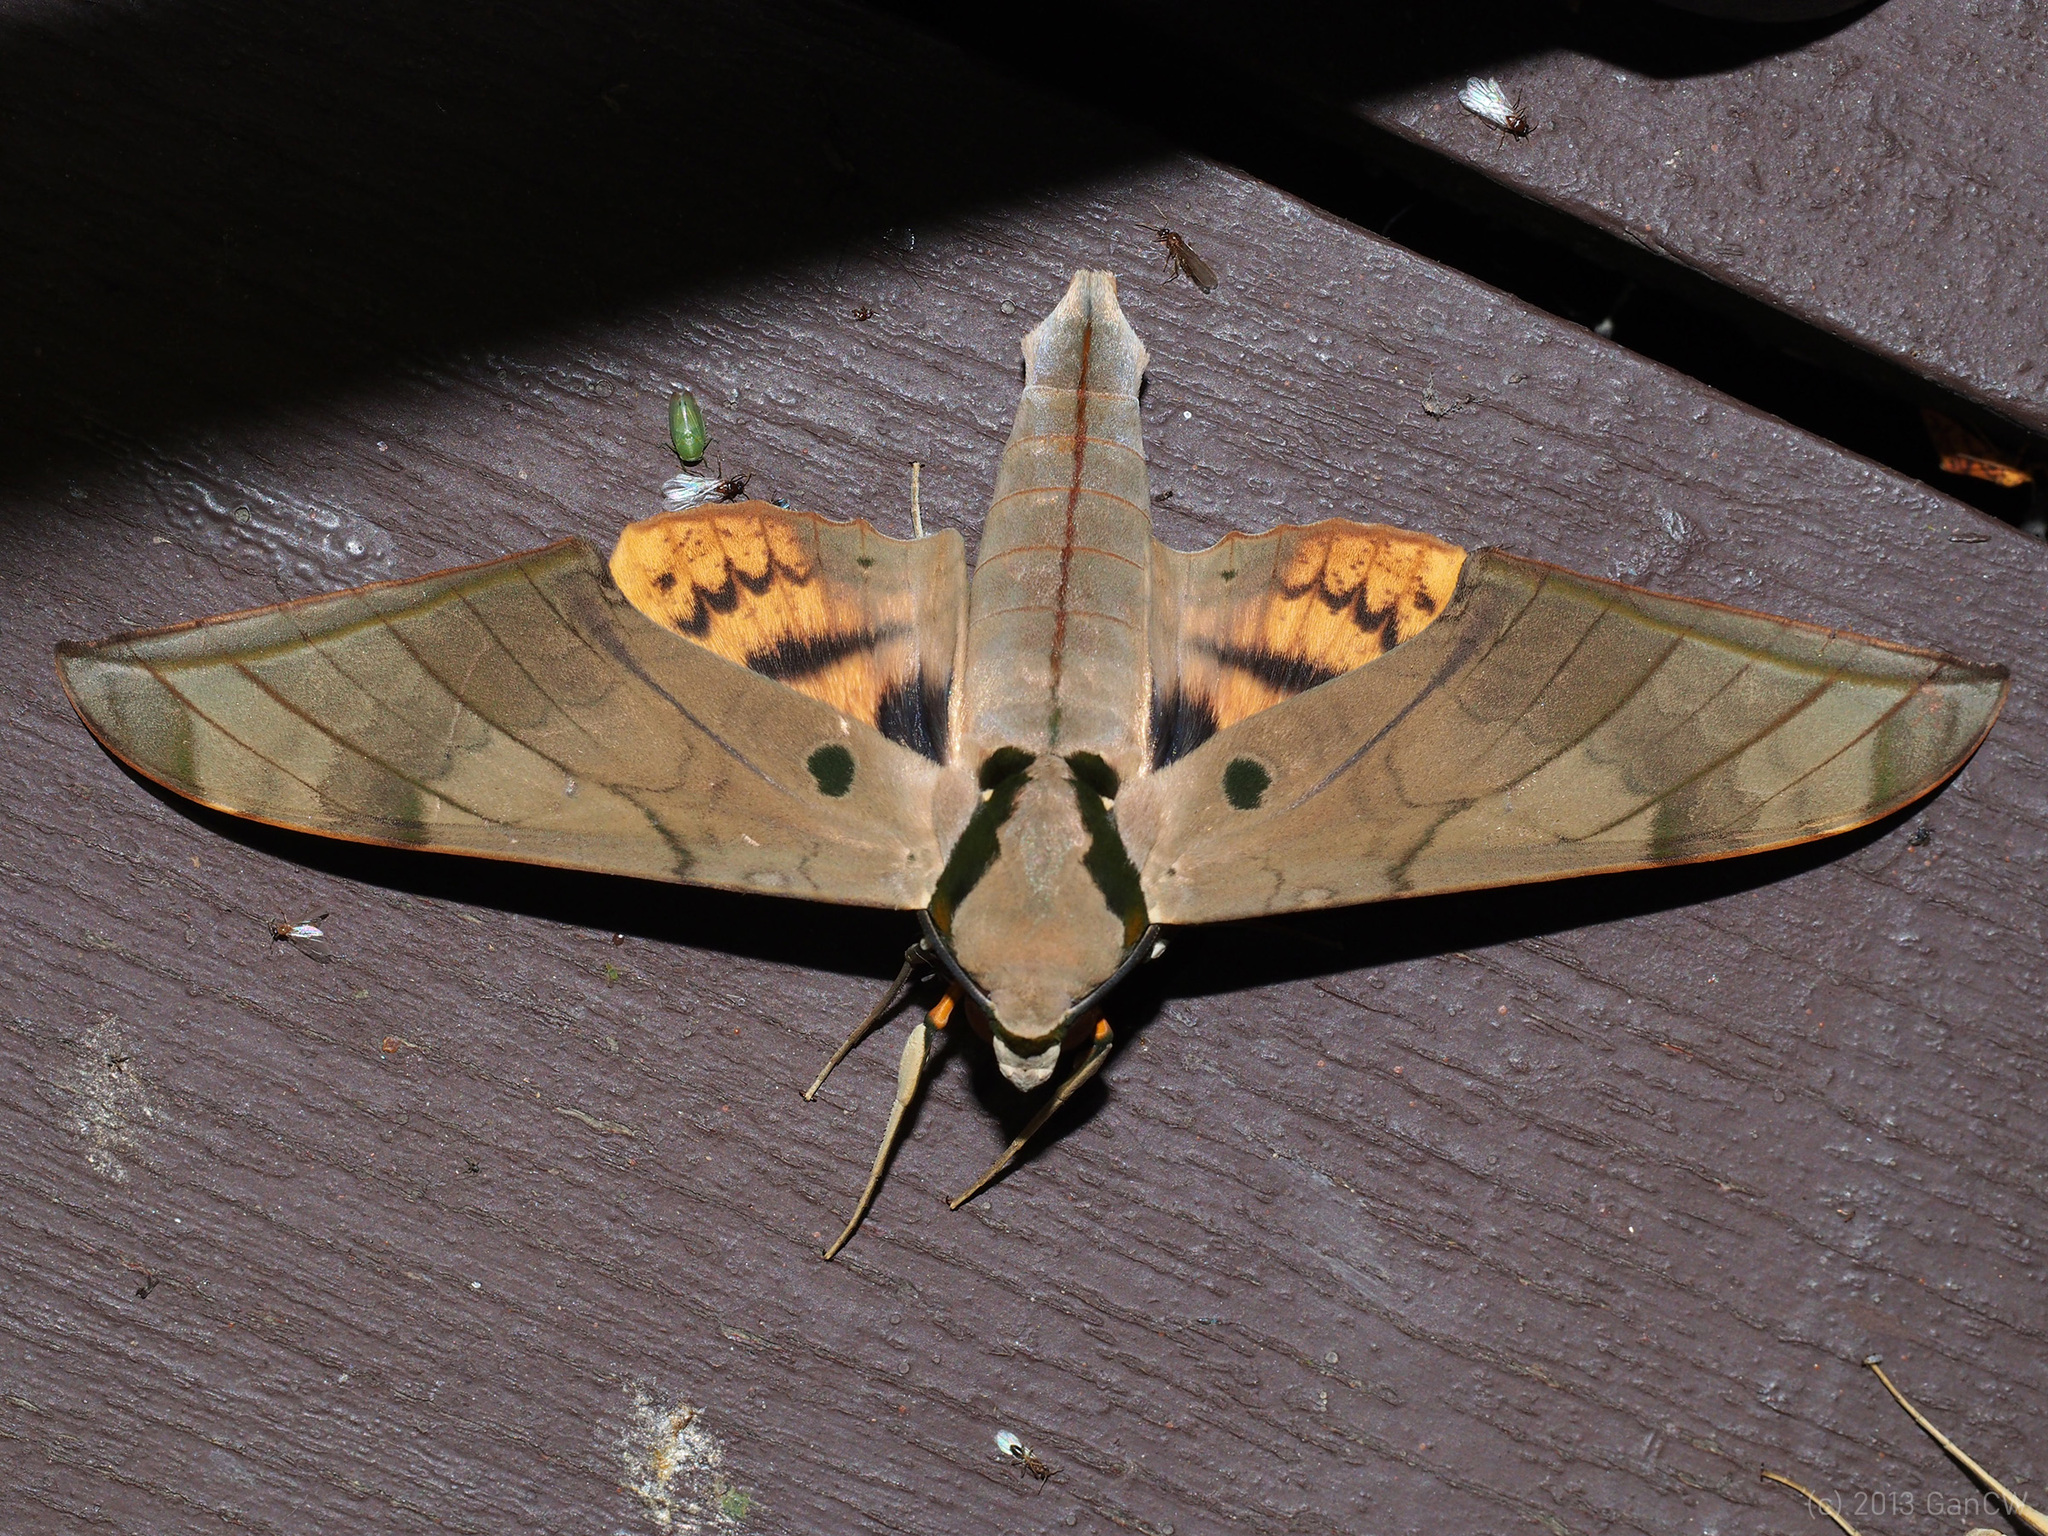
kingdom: Animalia
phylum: Arthropoda
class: Insecta
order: Lepidoptera
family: Sphingidae
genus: Ambulyx
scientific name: Ambulyx pryeri
